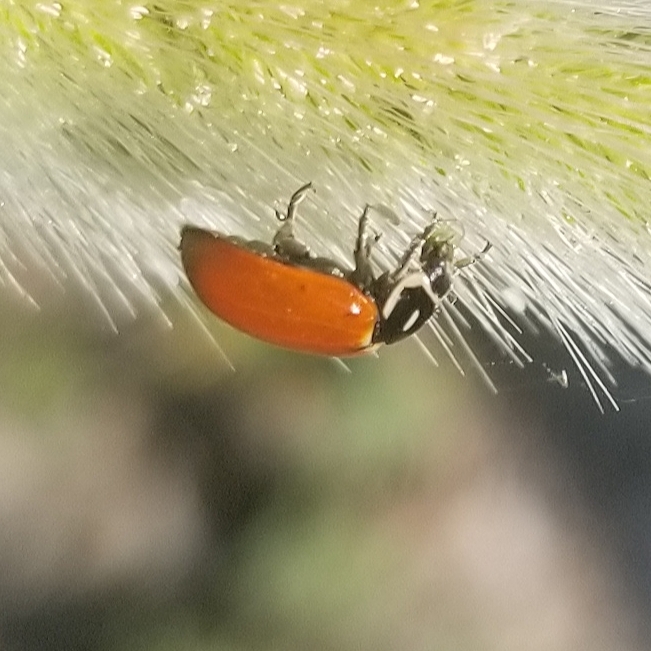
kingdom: Animalia
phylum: Arthropoda
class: Insecta
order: Coleoptera
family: Coccinellidae
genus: Hippodamia
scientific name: Hippodamia convergens
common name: Convergent lady beetle
